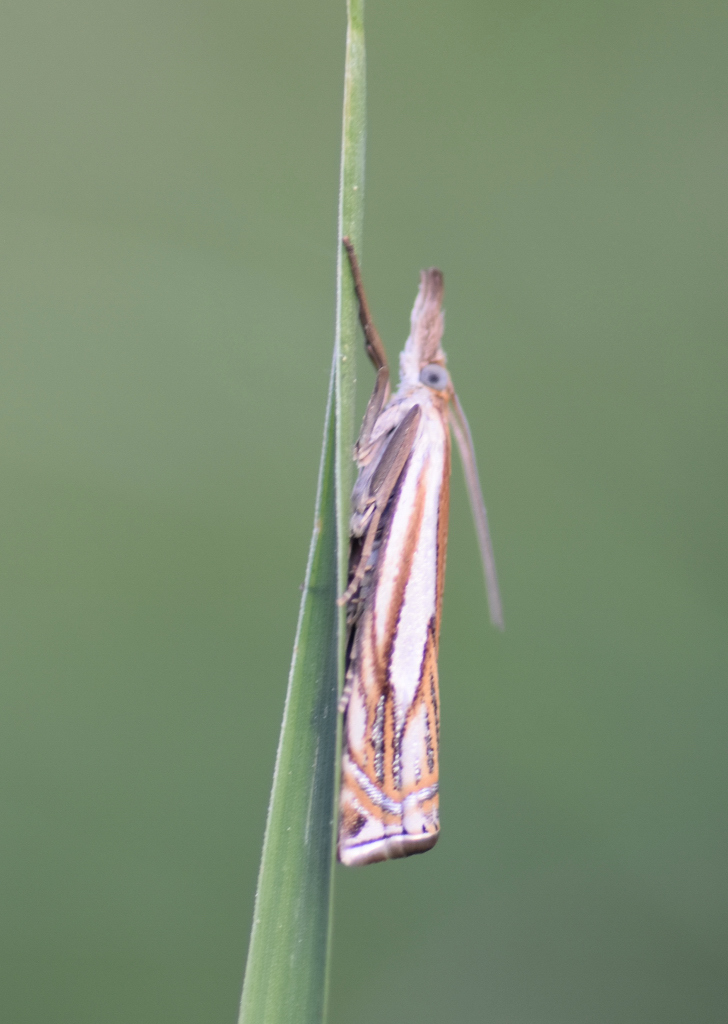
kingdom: Animalia
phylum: Arthropoda
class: Insecta
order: Lepidoptera
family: Crambidae
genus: Crambus
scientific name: Crambus saltuellus
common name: Pasture grass-veneer
